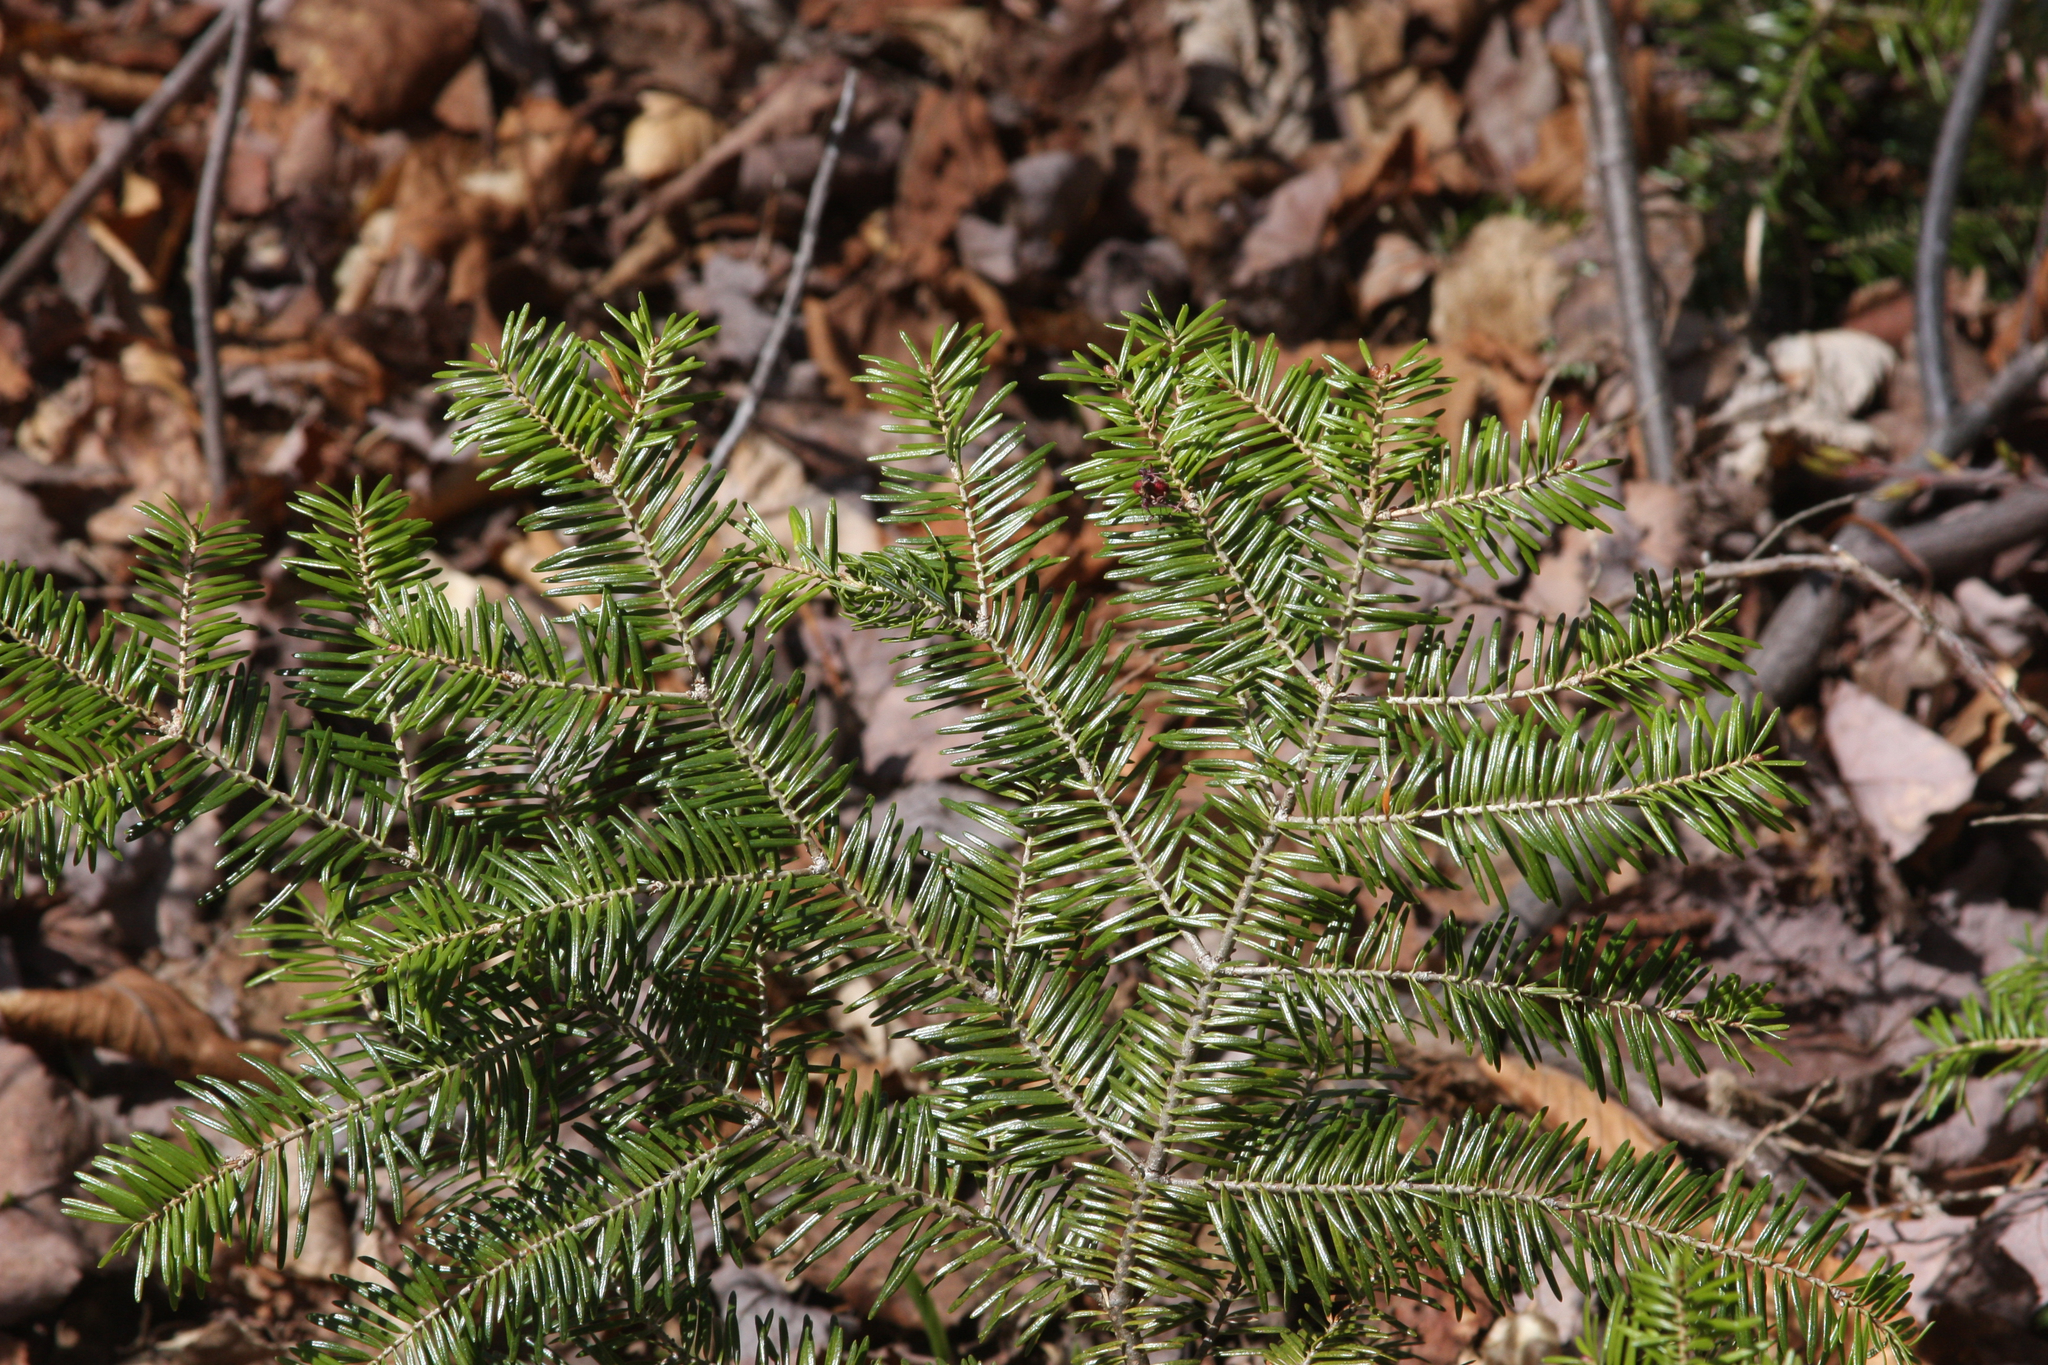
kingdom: Plantae
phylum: Tracheophyta
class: Pinopsida
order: Pinales
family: Pinaceae
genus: Abies
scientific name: Abies balsamea
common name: Balsam fir
